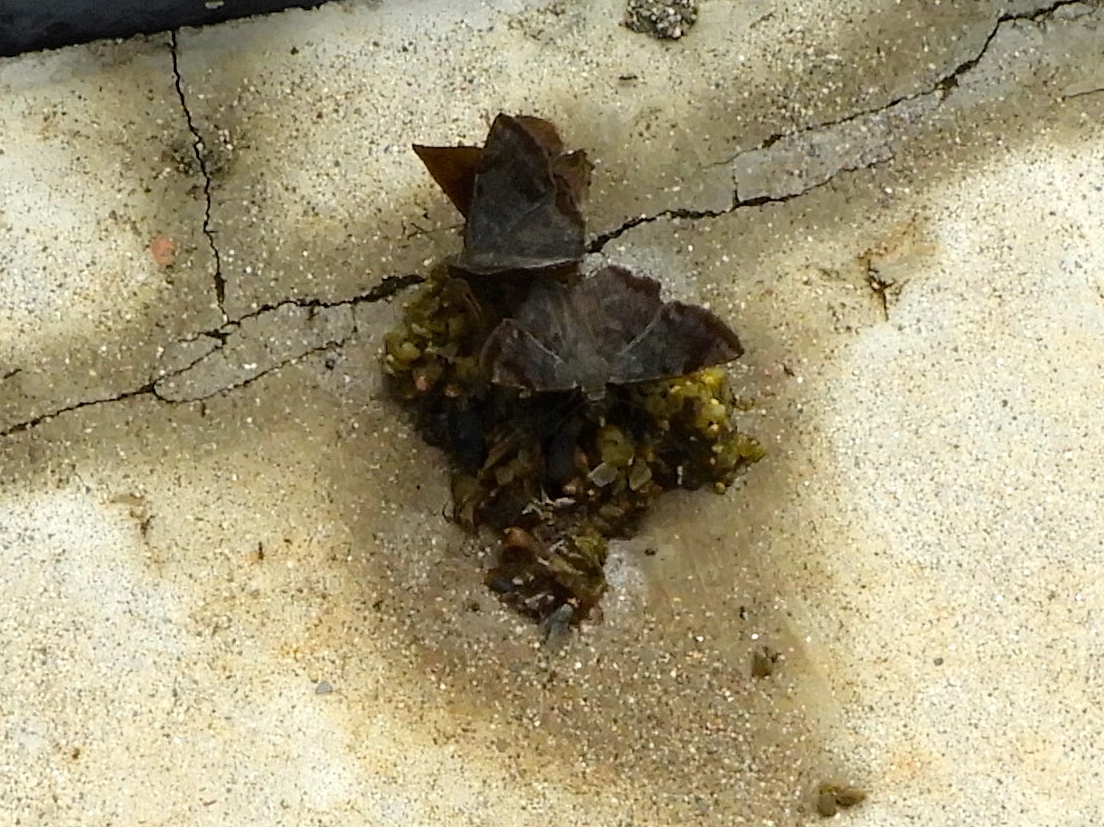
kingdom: Animalia
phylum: Arthropoda
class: Insecta
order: Lepidoptera
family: Hesperiidae
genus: Antigonus
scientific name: Antigonus erosus
